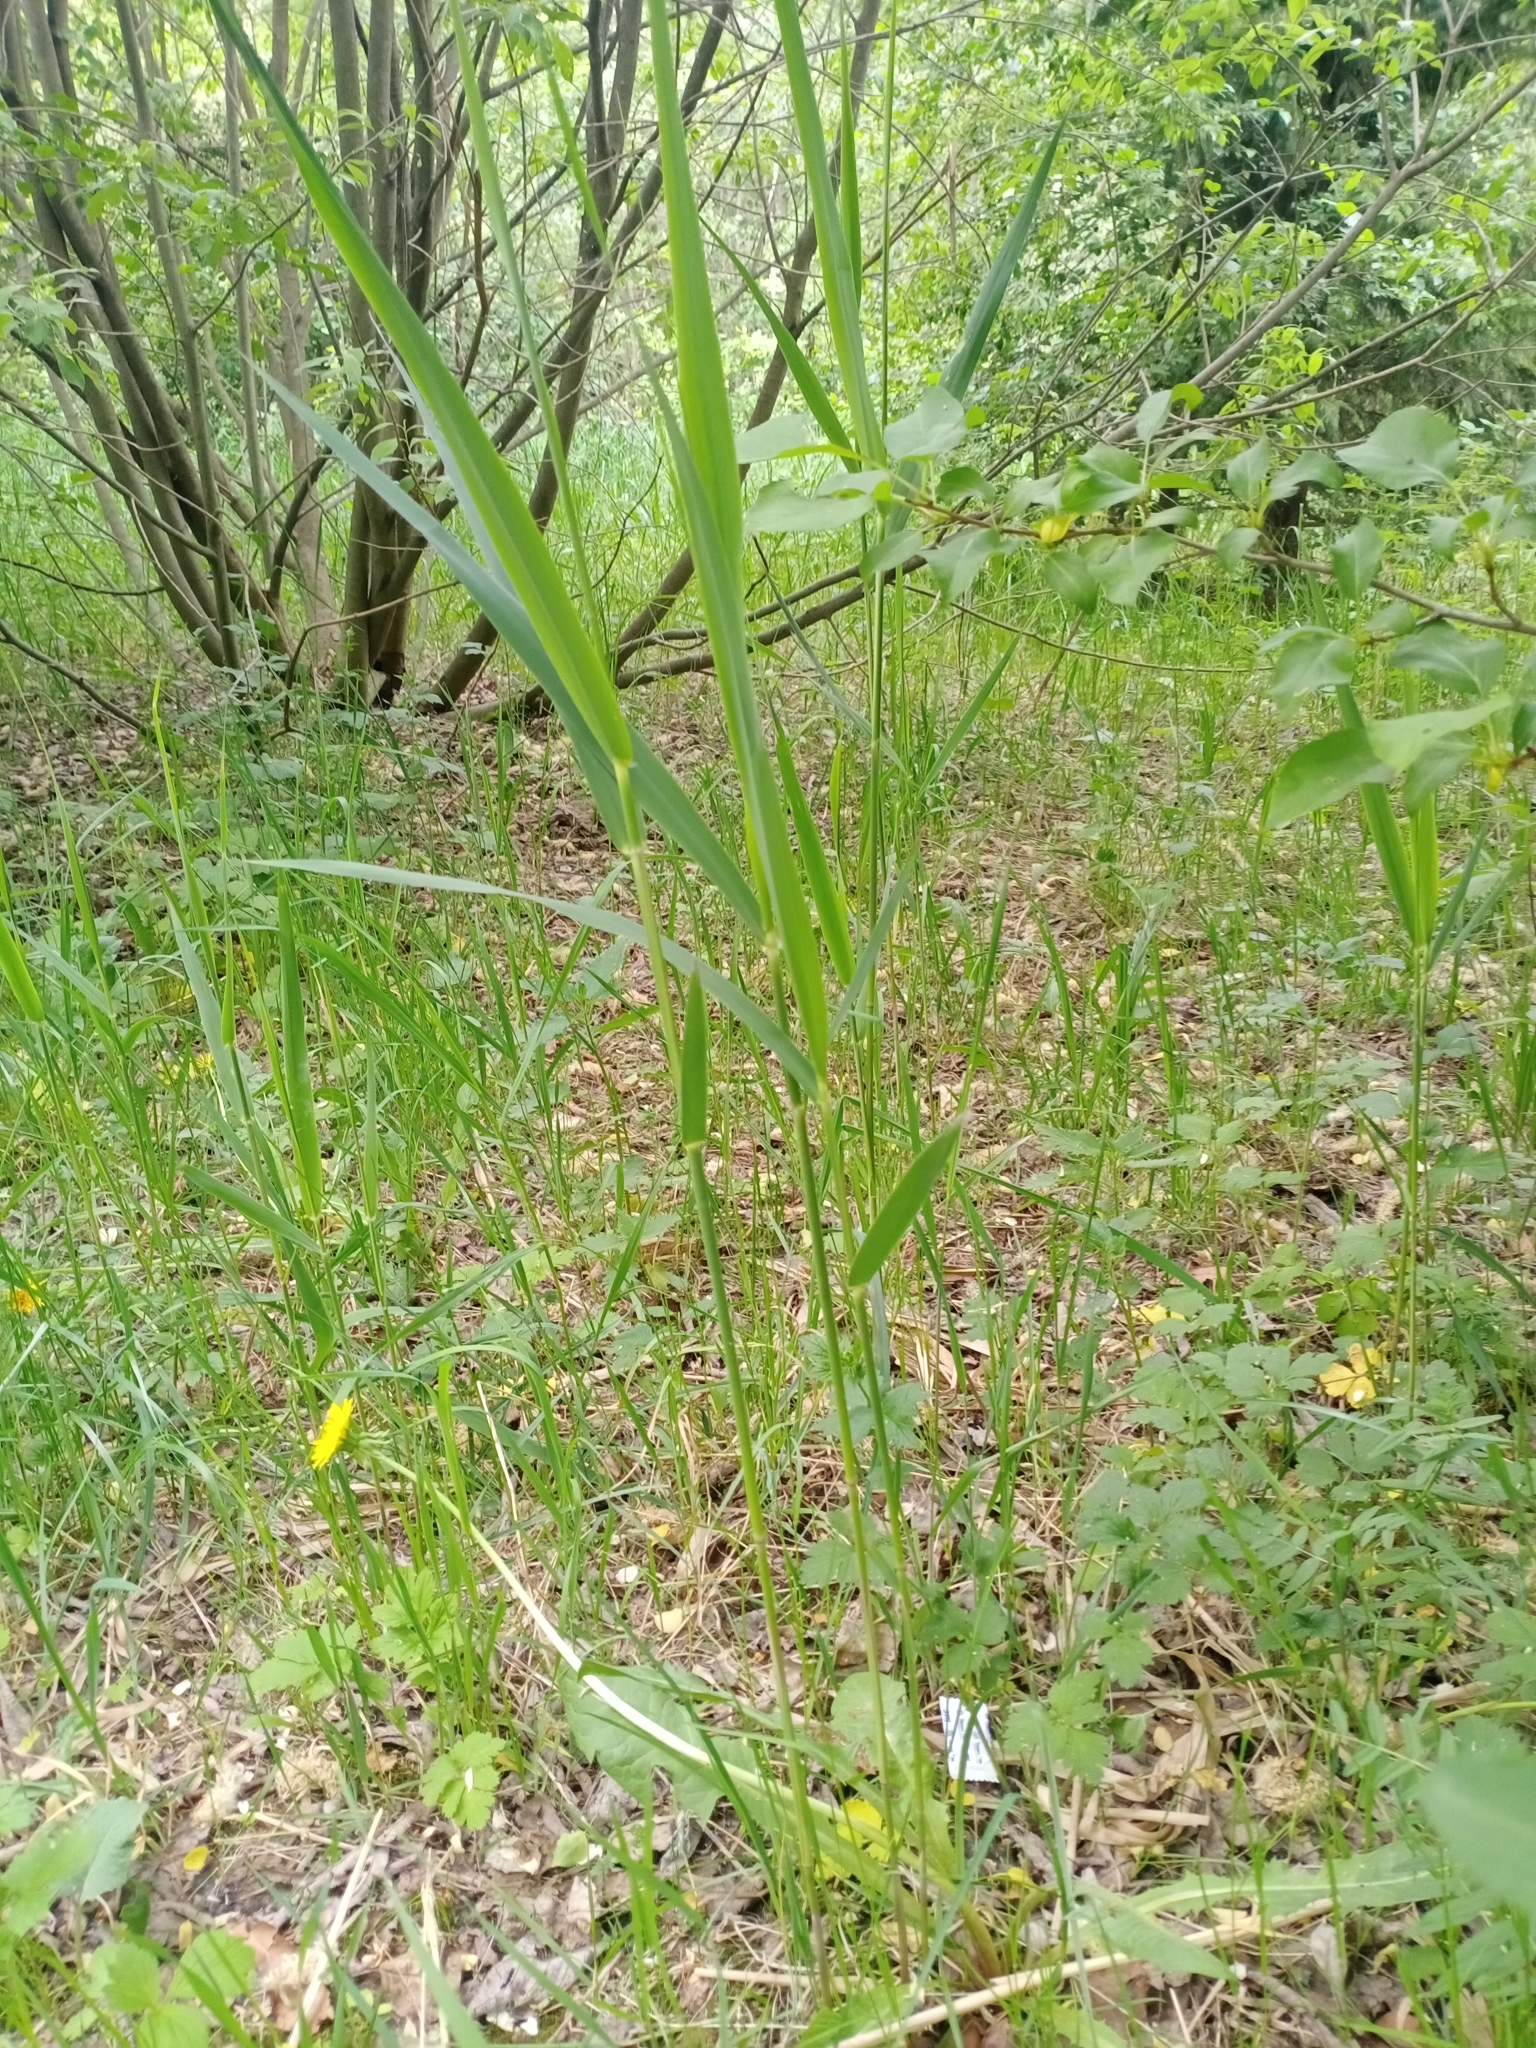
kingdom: Plantae
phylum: Tracheophyta
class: Liliopsida
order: Poales
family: Poaceae
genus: Phragmites
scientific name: Phragmites australis
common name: Common reed
